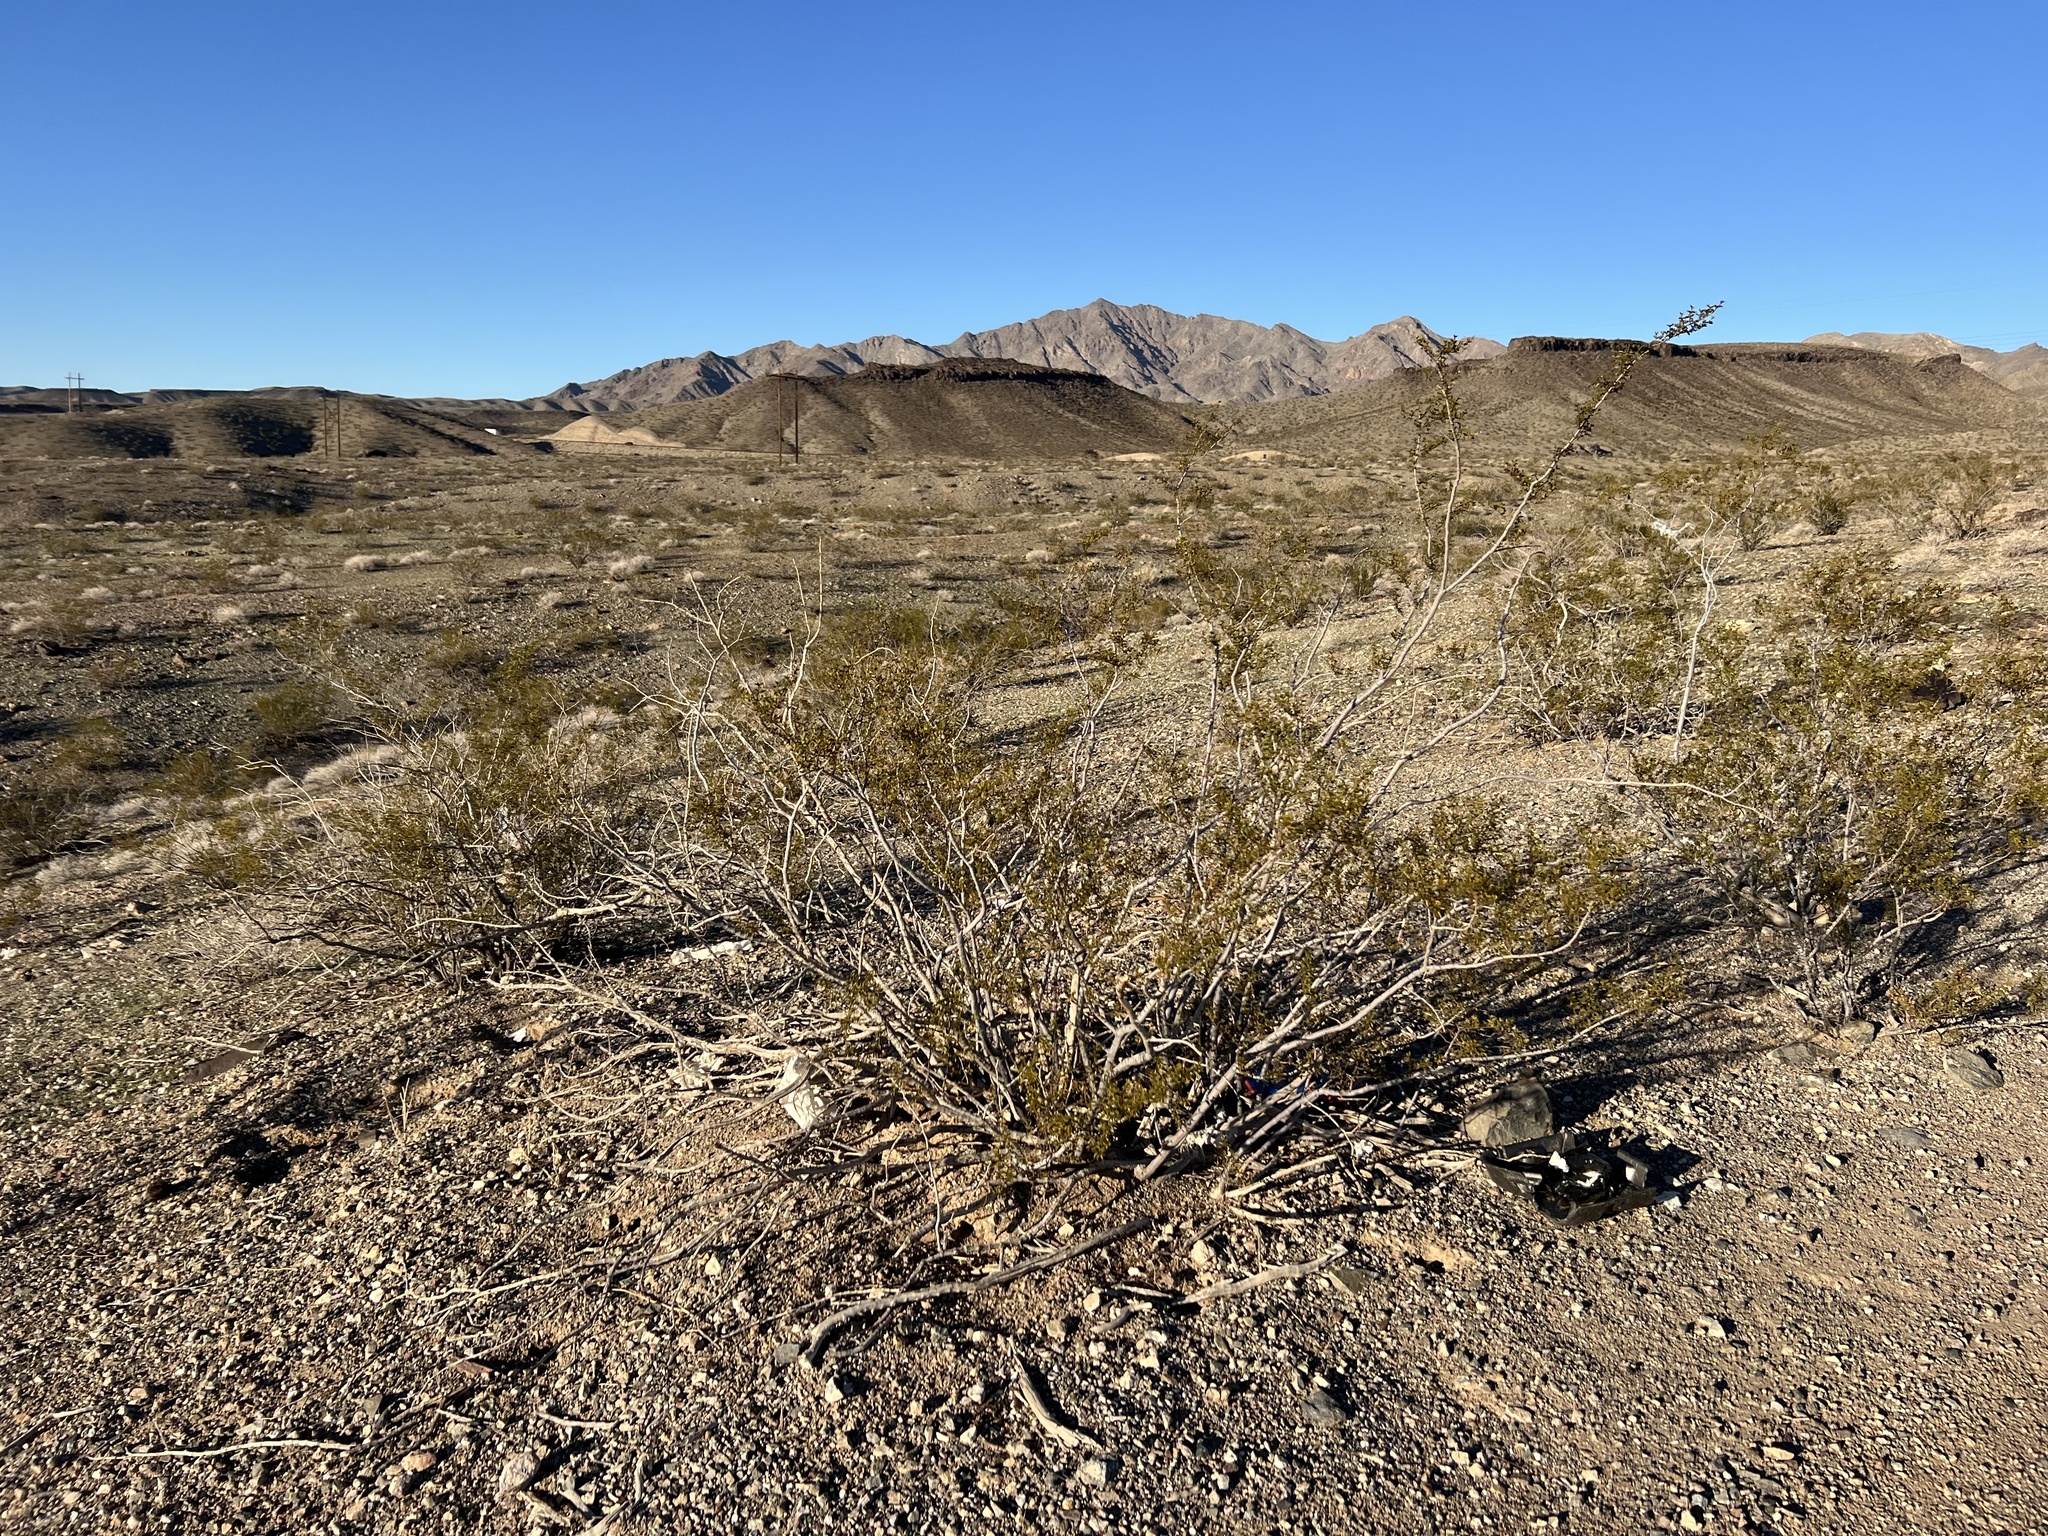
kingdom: Plantae
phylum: Tracheophyta
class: Magnoliopsida
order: Zygophyllales
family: Zygophyllaceae
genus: Larrea
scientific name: Larrea tridentata
